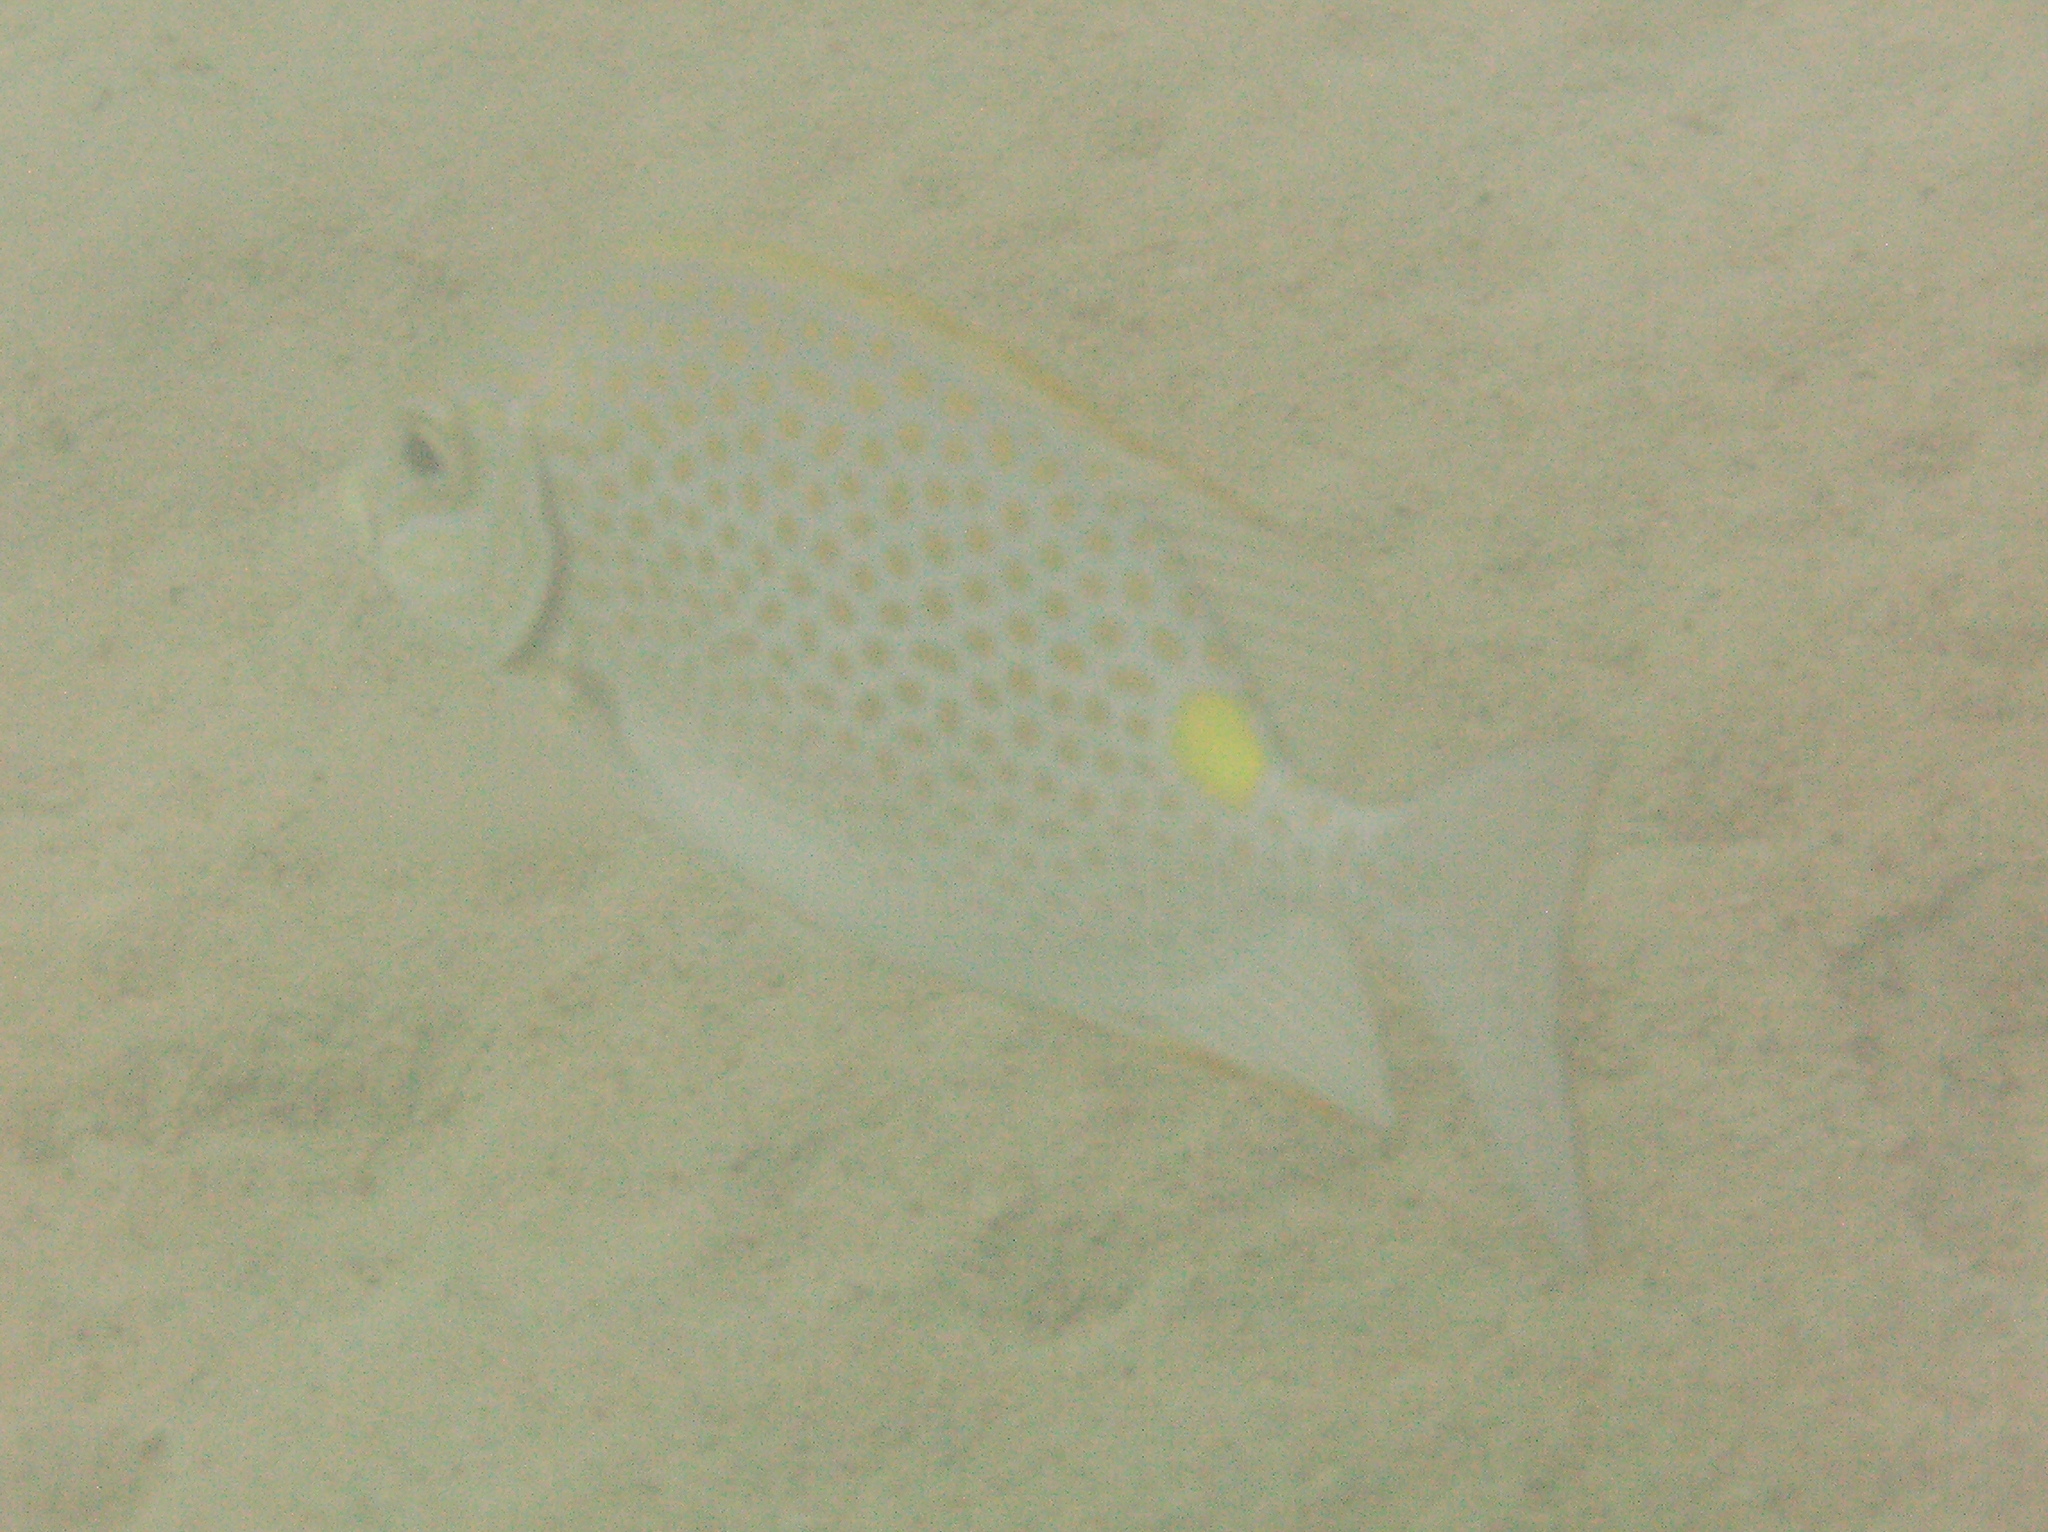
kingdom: Animalia
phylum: Chordata
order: Perciformes
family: Siganidae
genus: Siganus
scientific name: Siganus guttatus
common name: Golden rabbitfish
